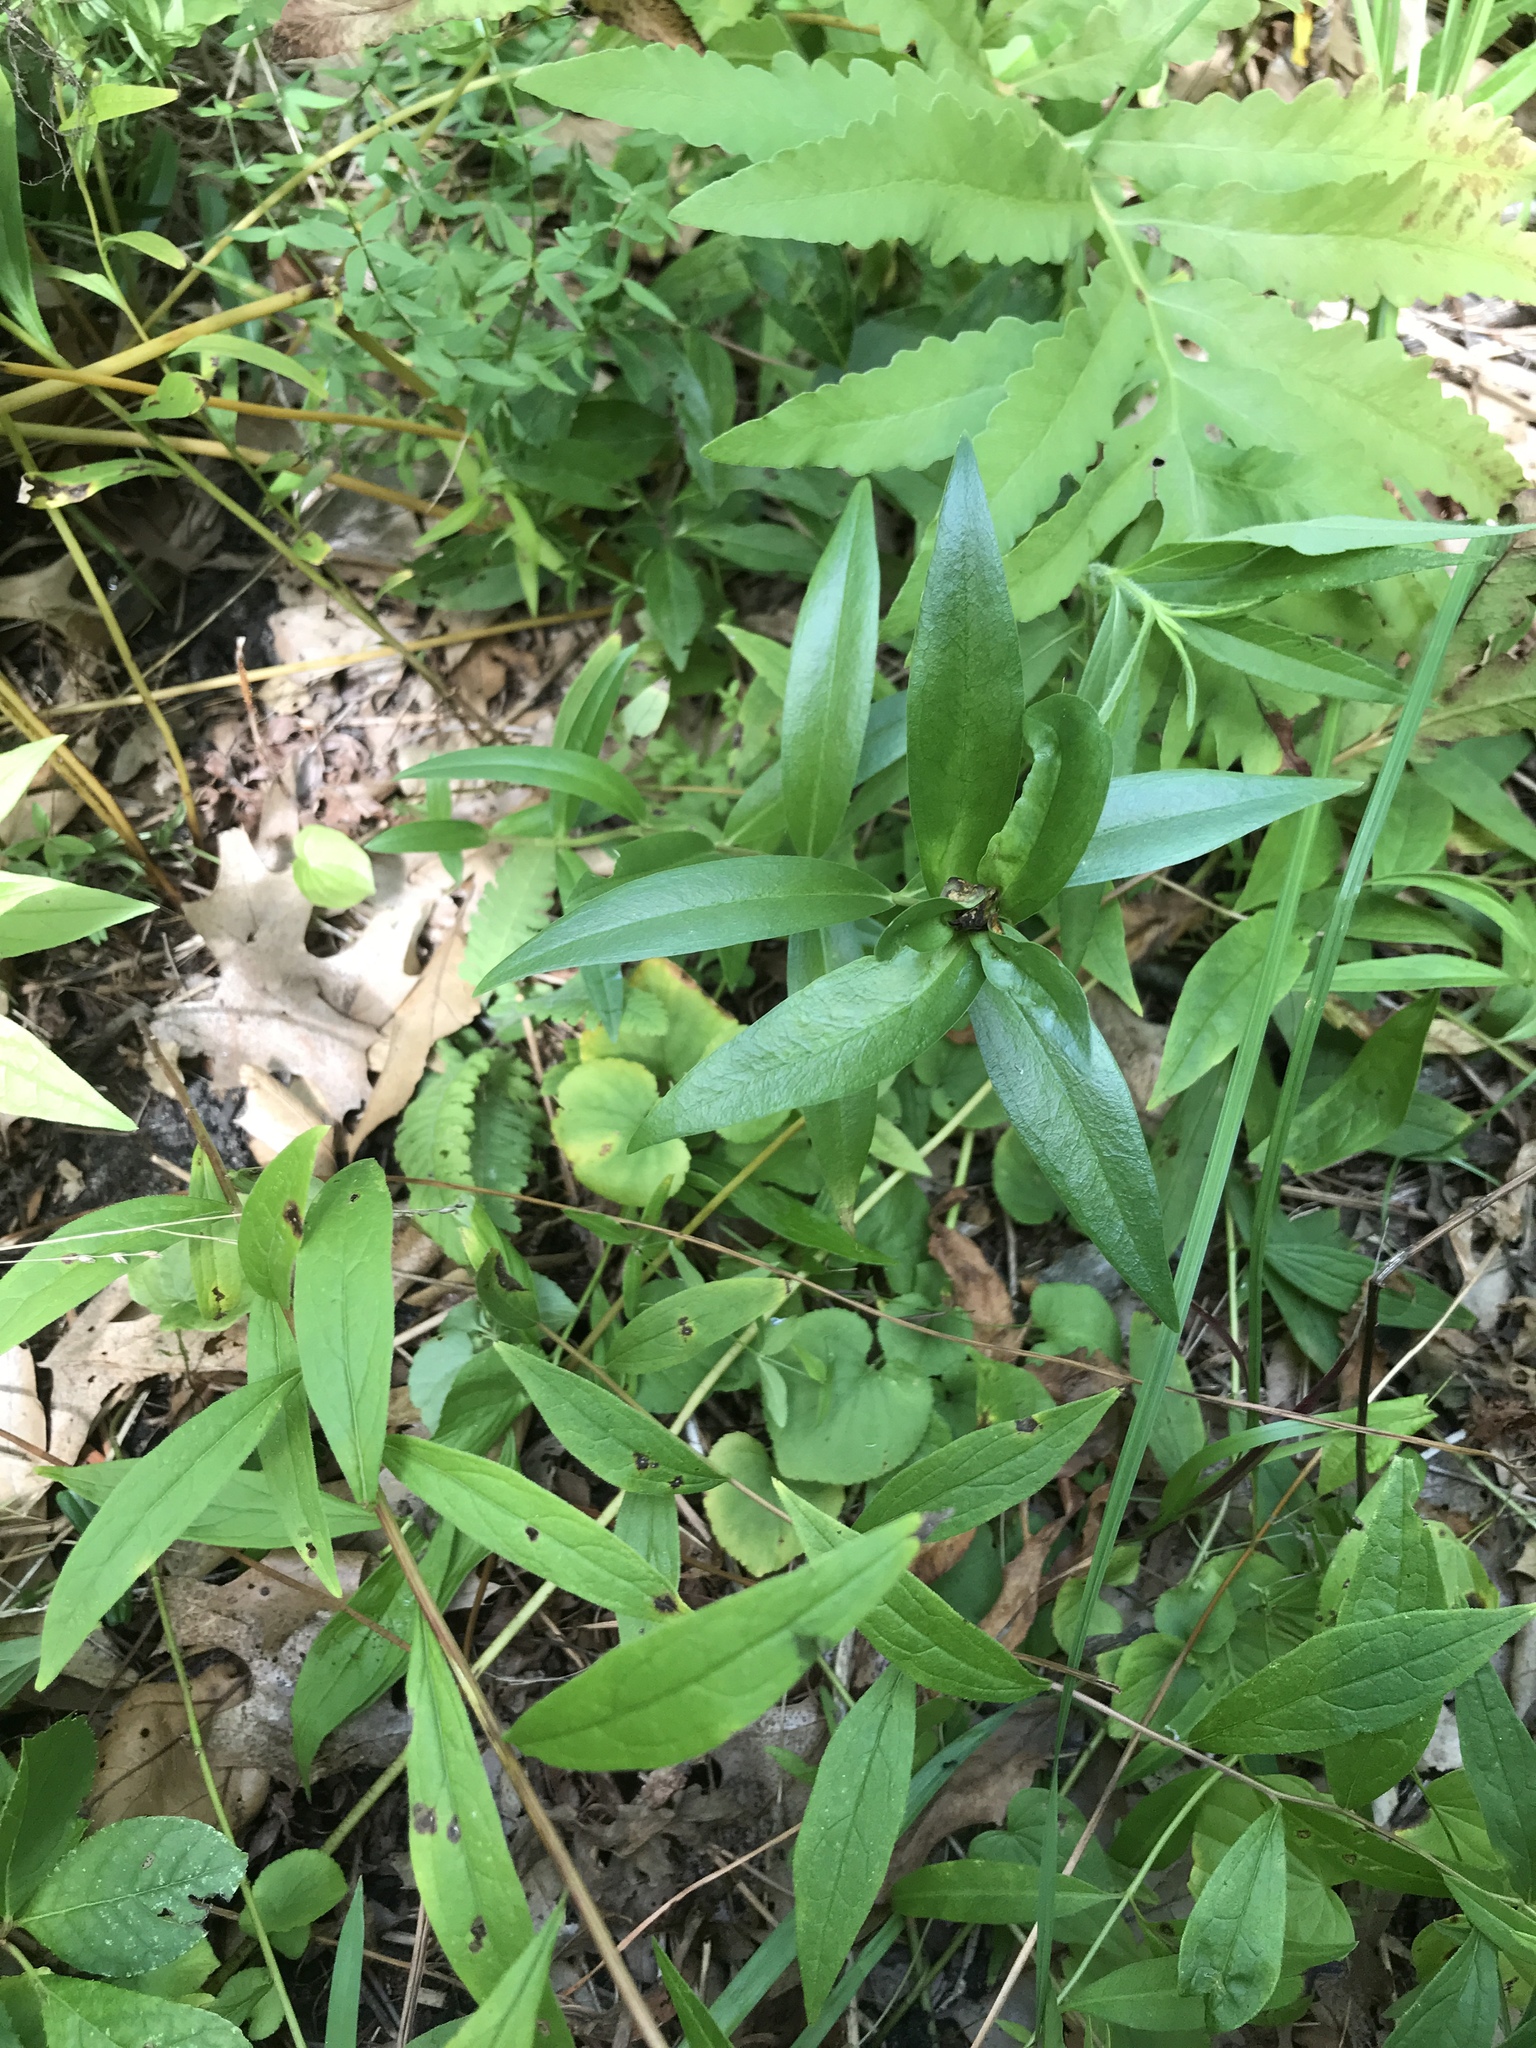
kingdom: Plantae
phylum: Tracheophyta
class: Magnoliopsida
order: Gentianales
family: Gentianaceae
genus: Gentiana
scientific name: Gentiana andrewsii
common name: Bottle gentian
